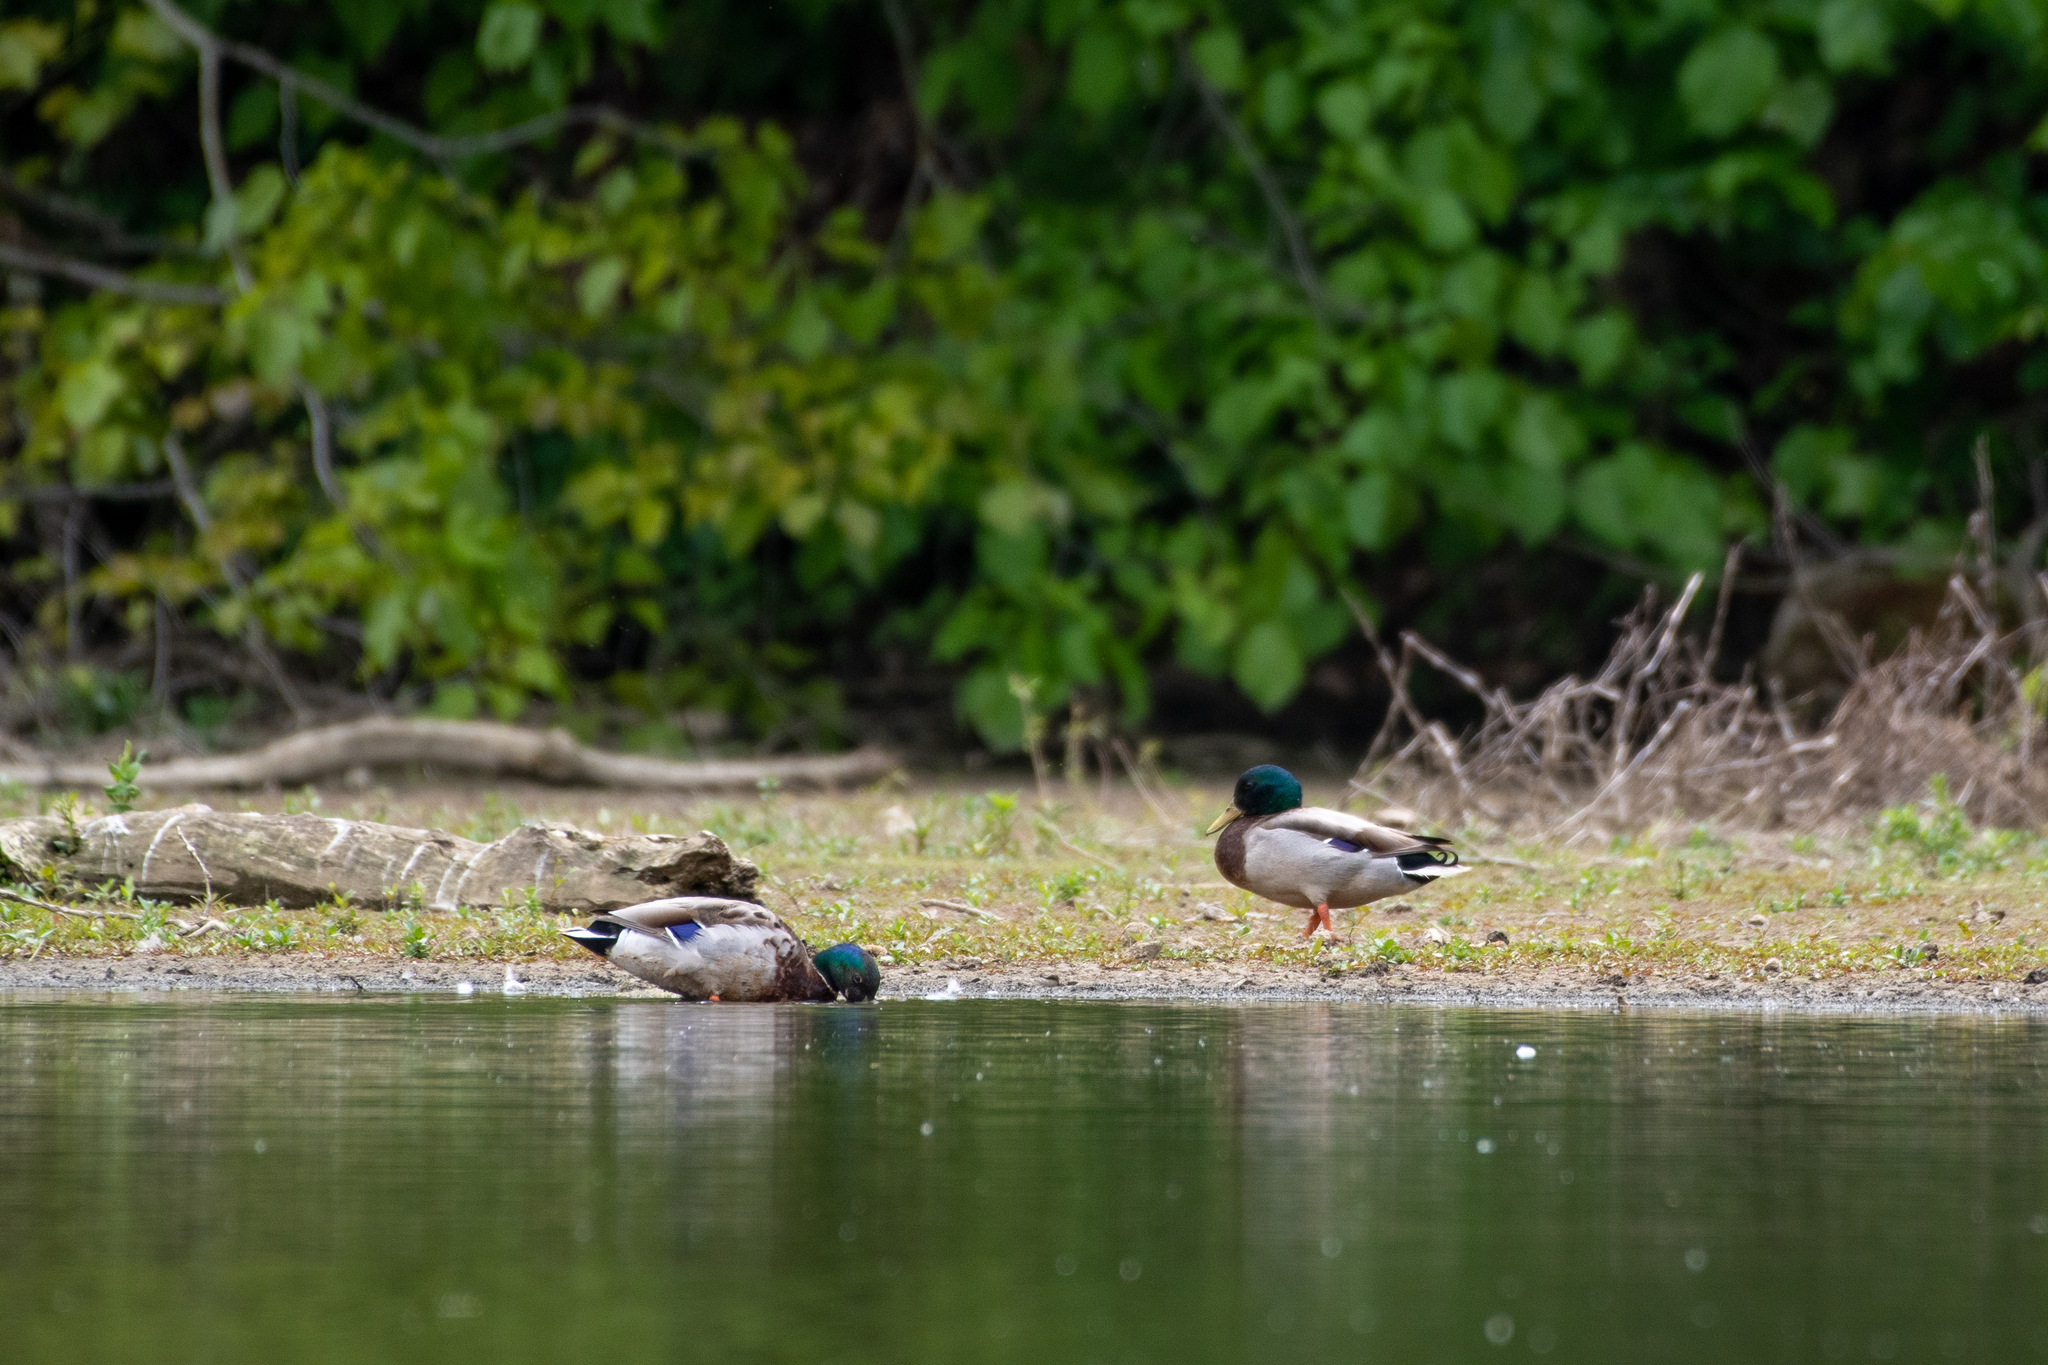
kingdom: Animalia
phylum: Chordata
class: Aves
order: Anseriformes
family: Anatidae
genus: Anas
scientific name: Anas platyrhynchos
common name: Mallard
